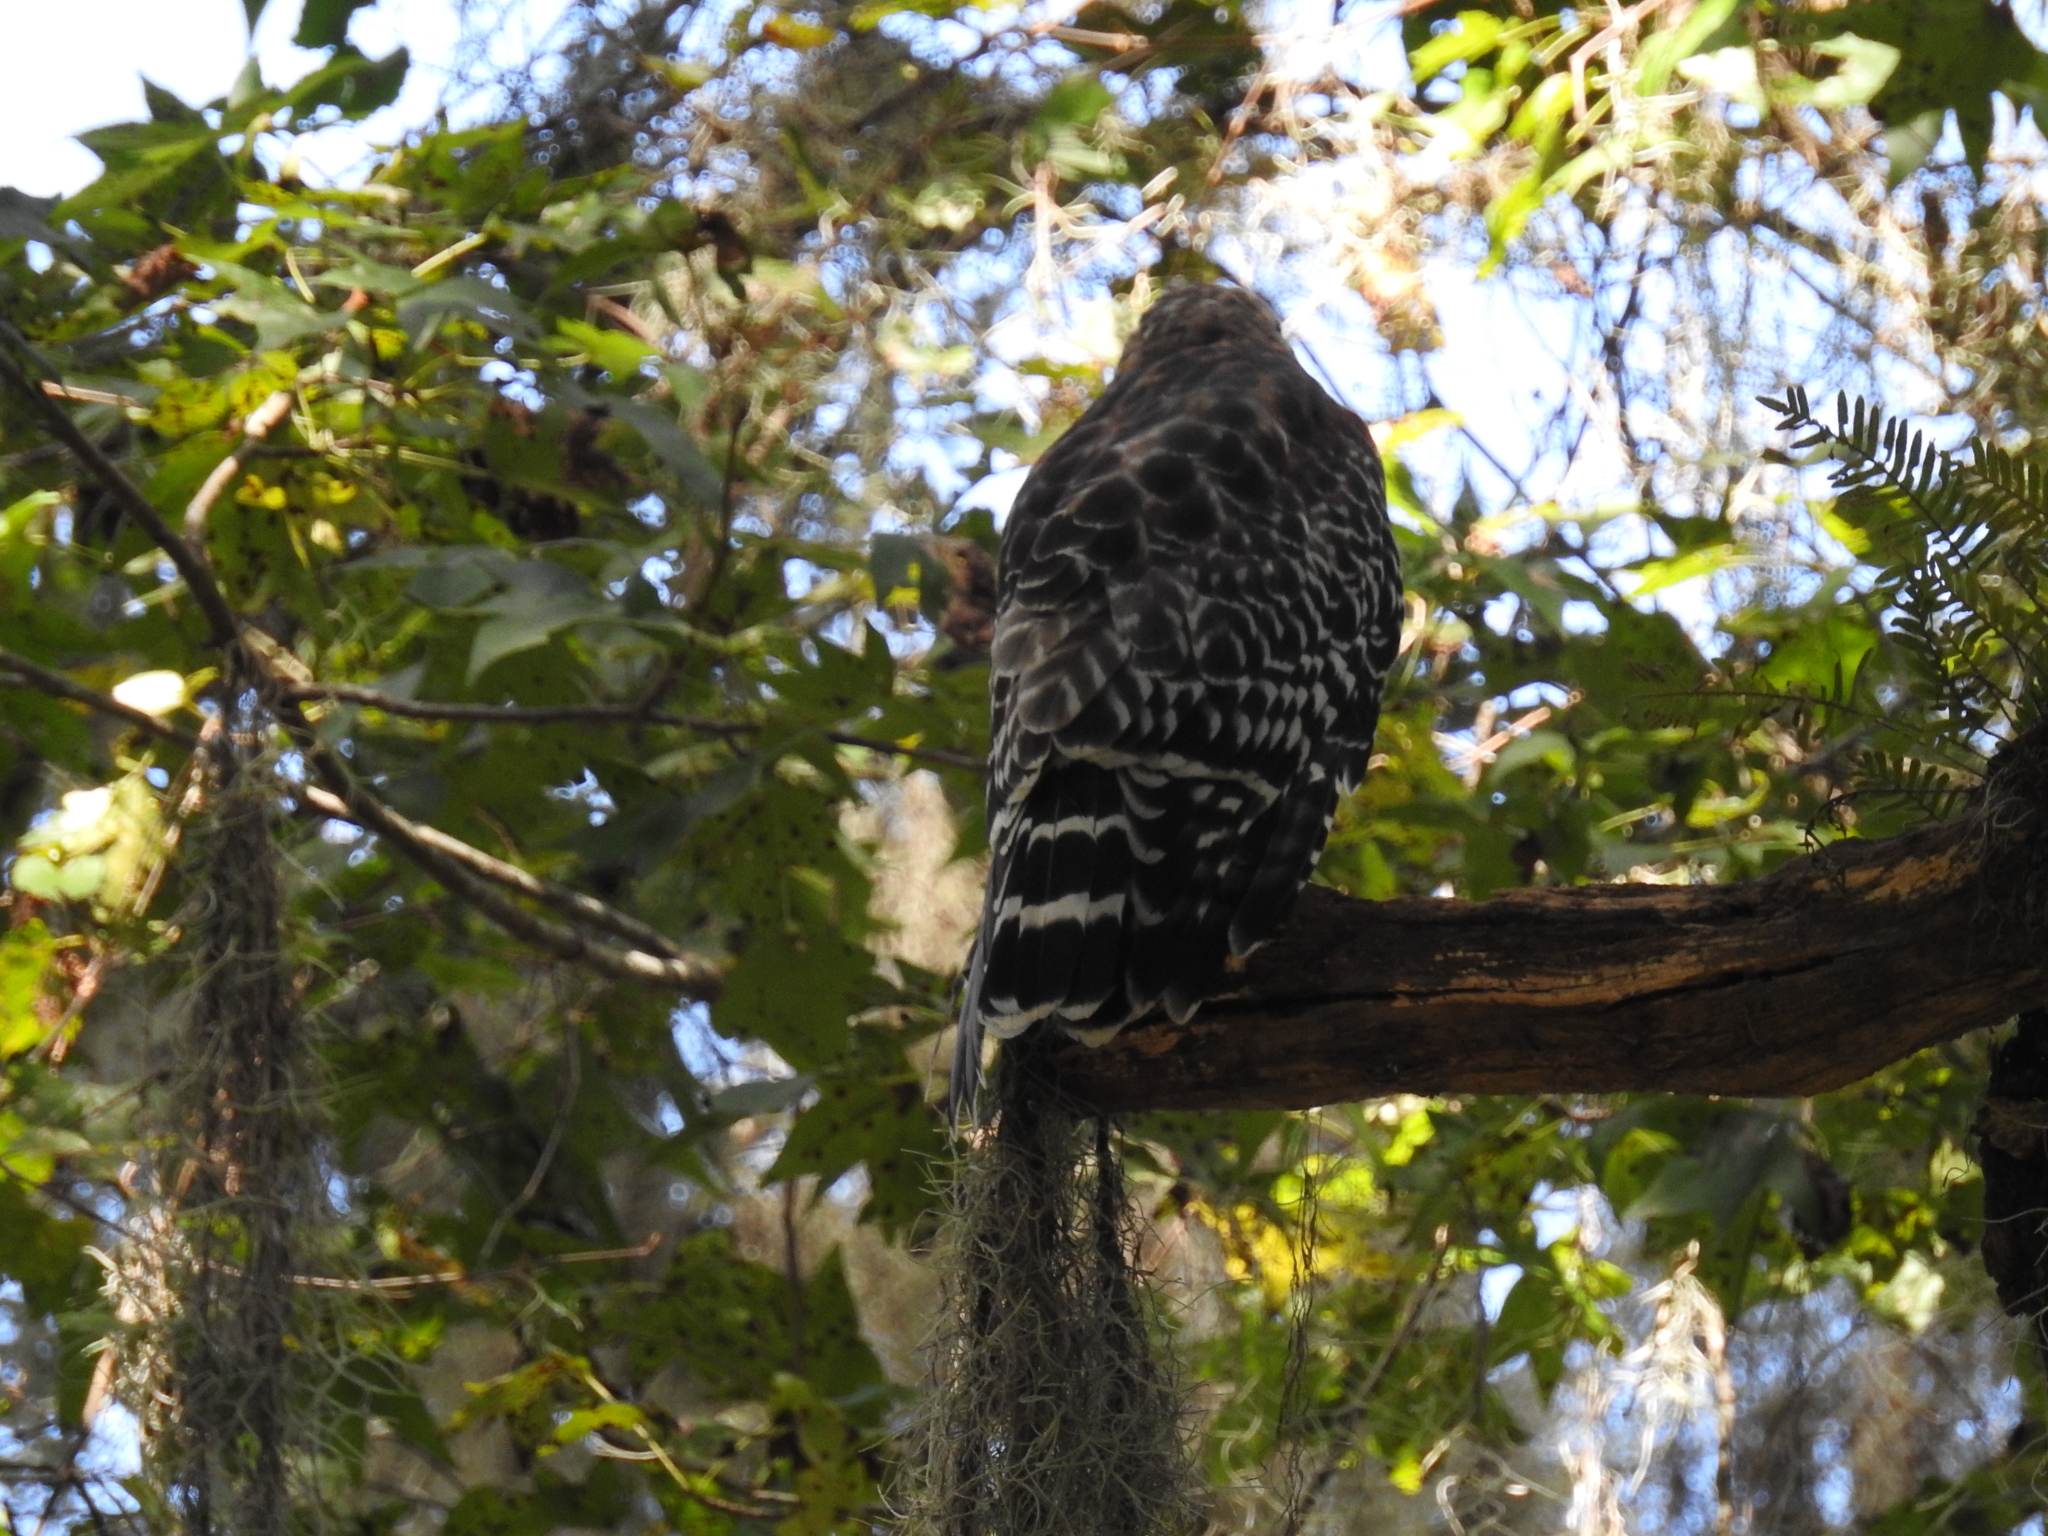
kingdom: Animalia
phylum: Chordata
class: Aves
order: Accipitriformes
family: Accipitridae
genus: Buteo
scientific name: Buteo lineatus
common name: Red-shouldered hawk
